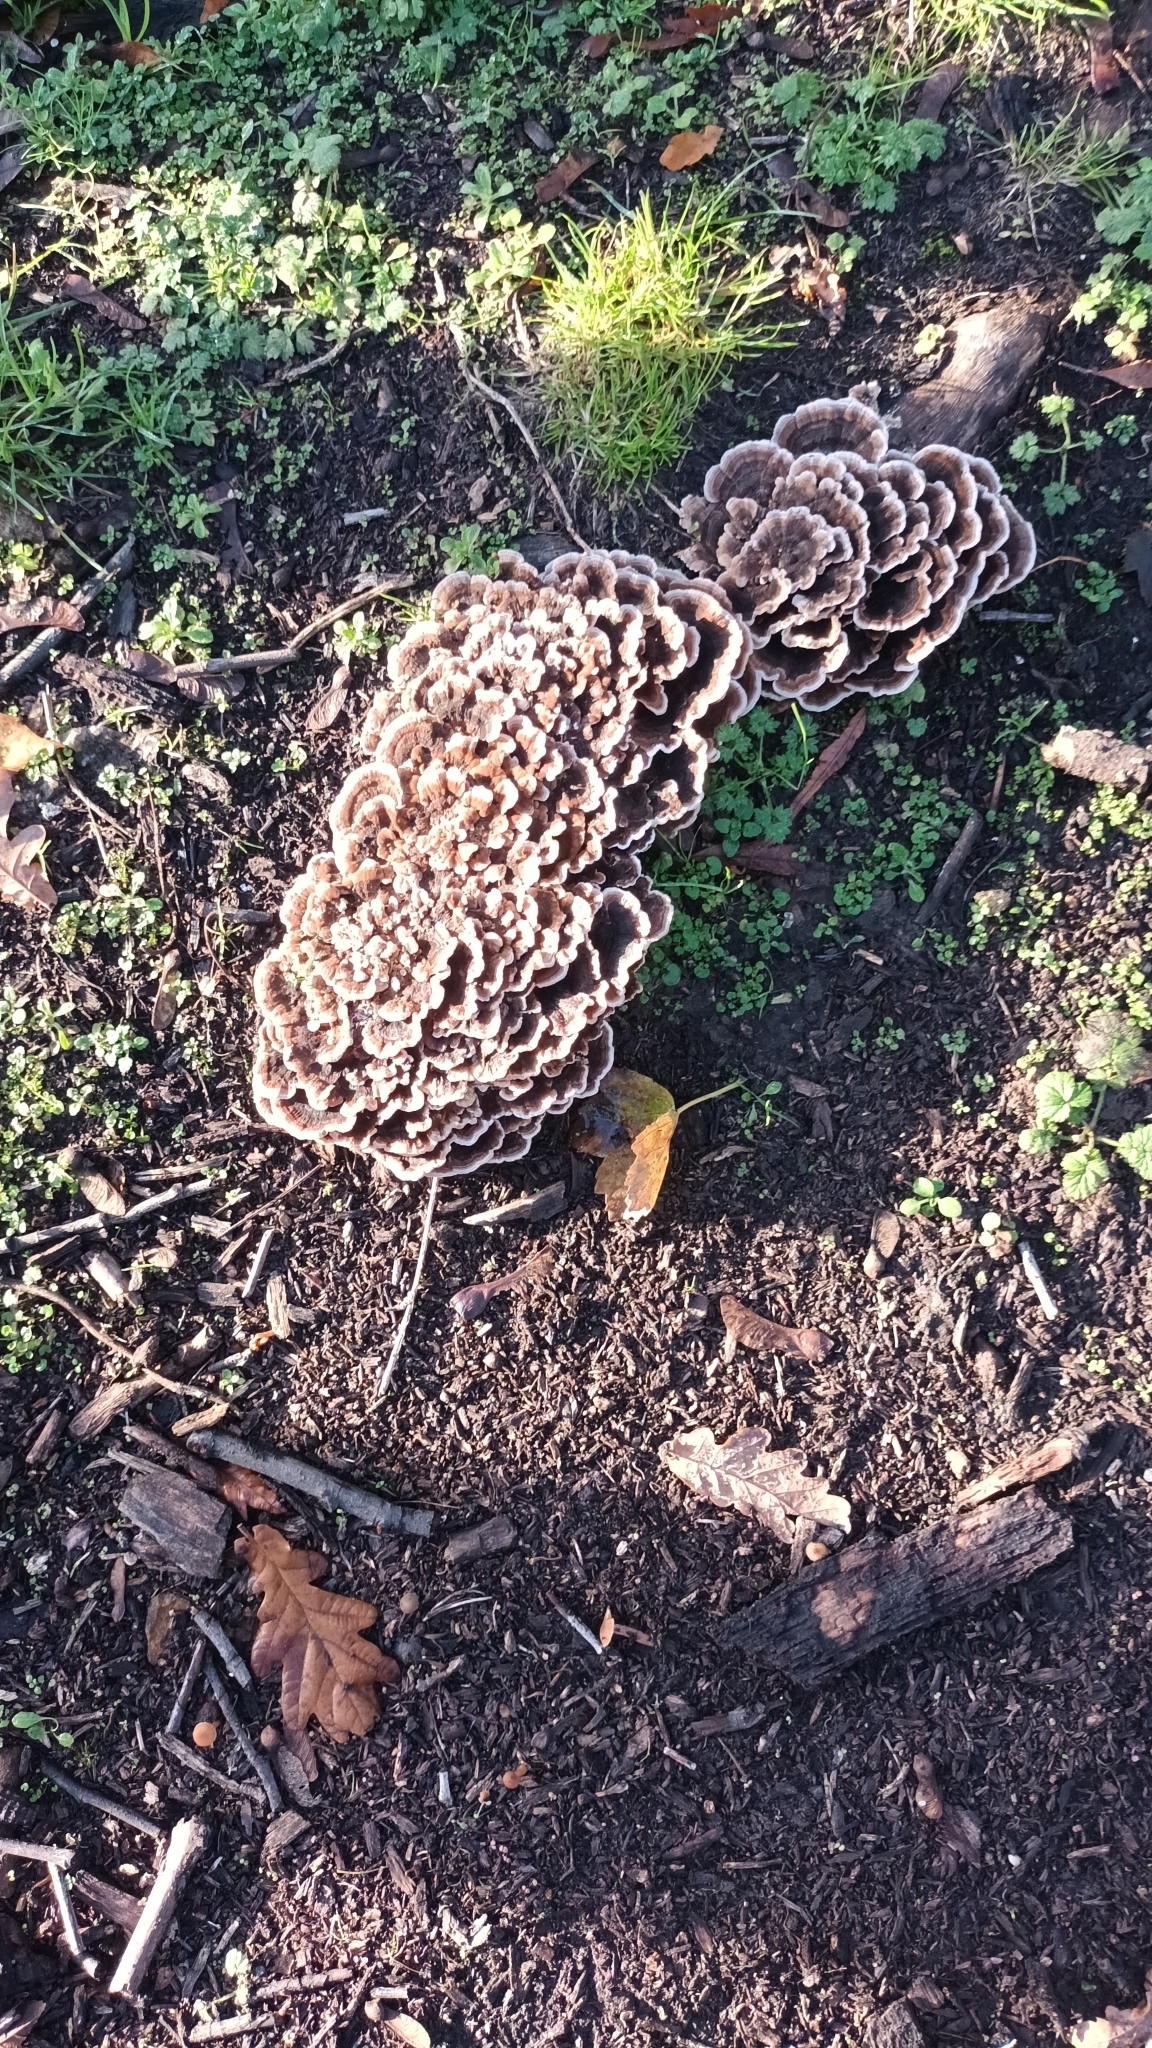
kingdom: Fungi
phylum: Basidiomycota
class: Agaricomycetes
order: Polyporales
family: Polyporaceae
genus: Trametes
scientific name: Trametes versicolor
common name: Turkeytail
